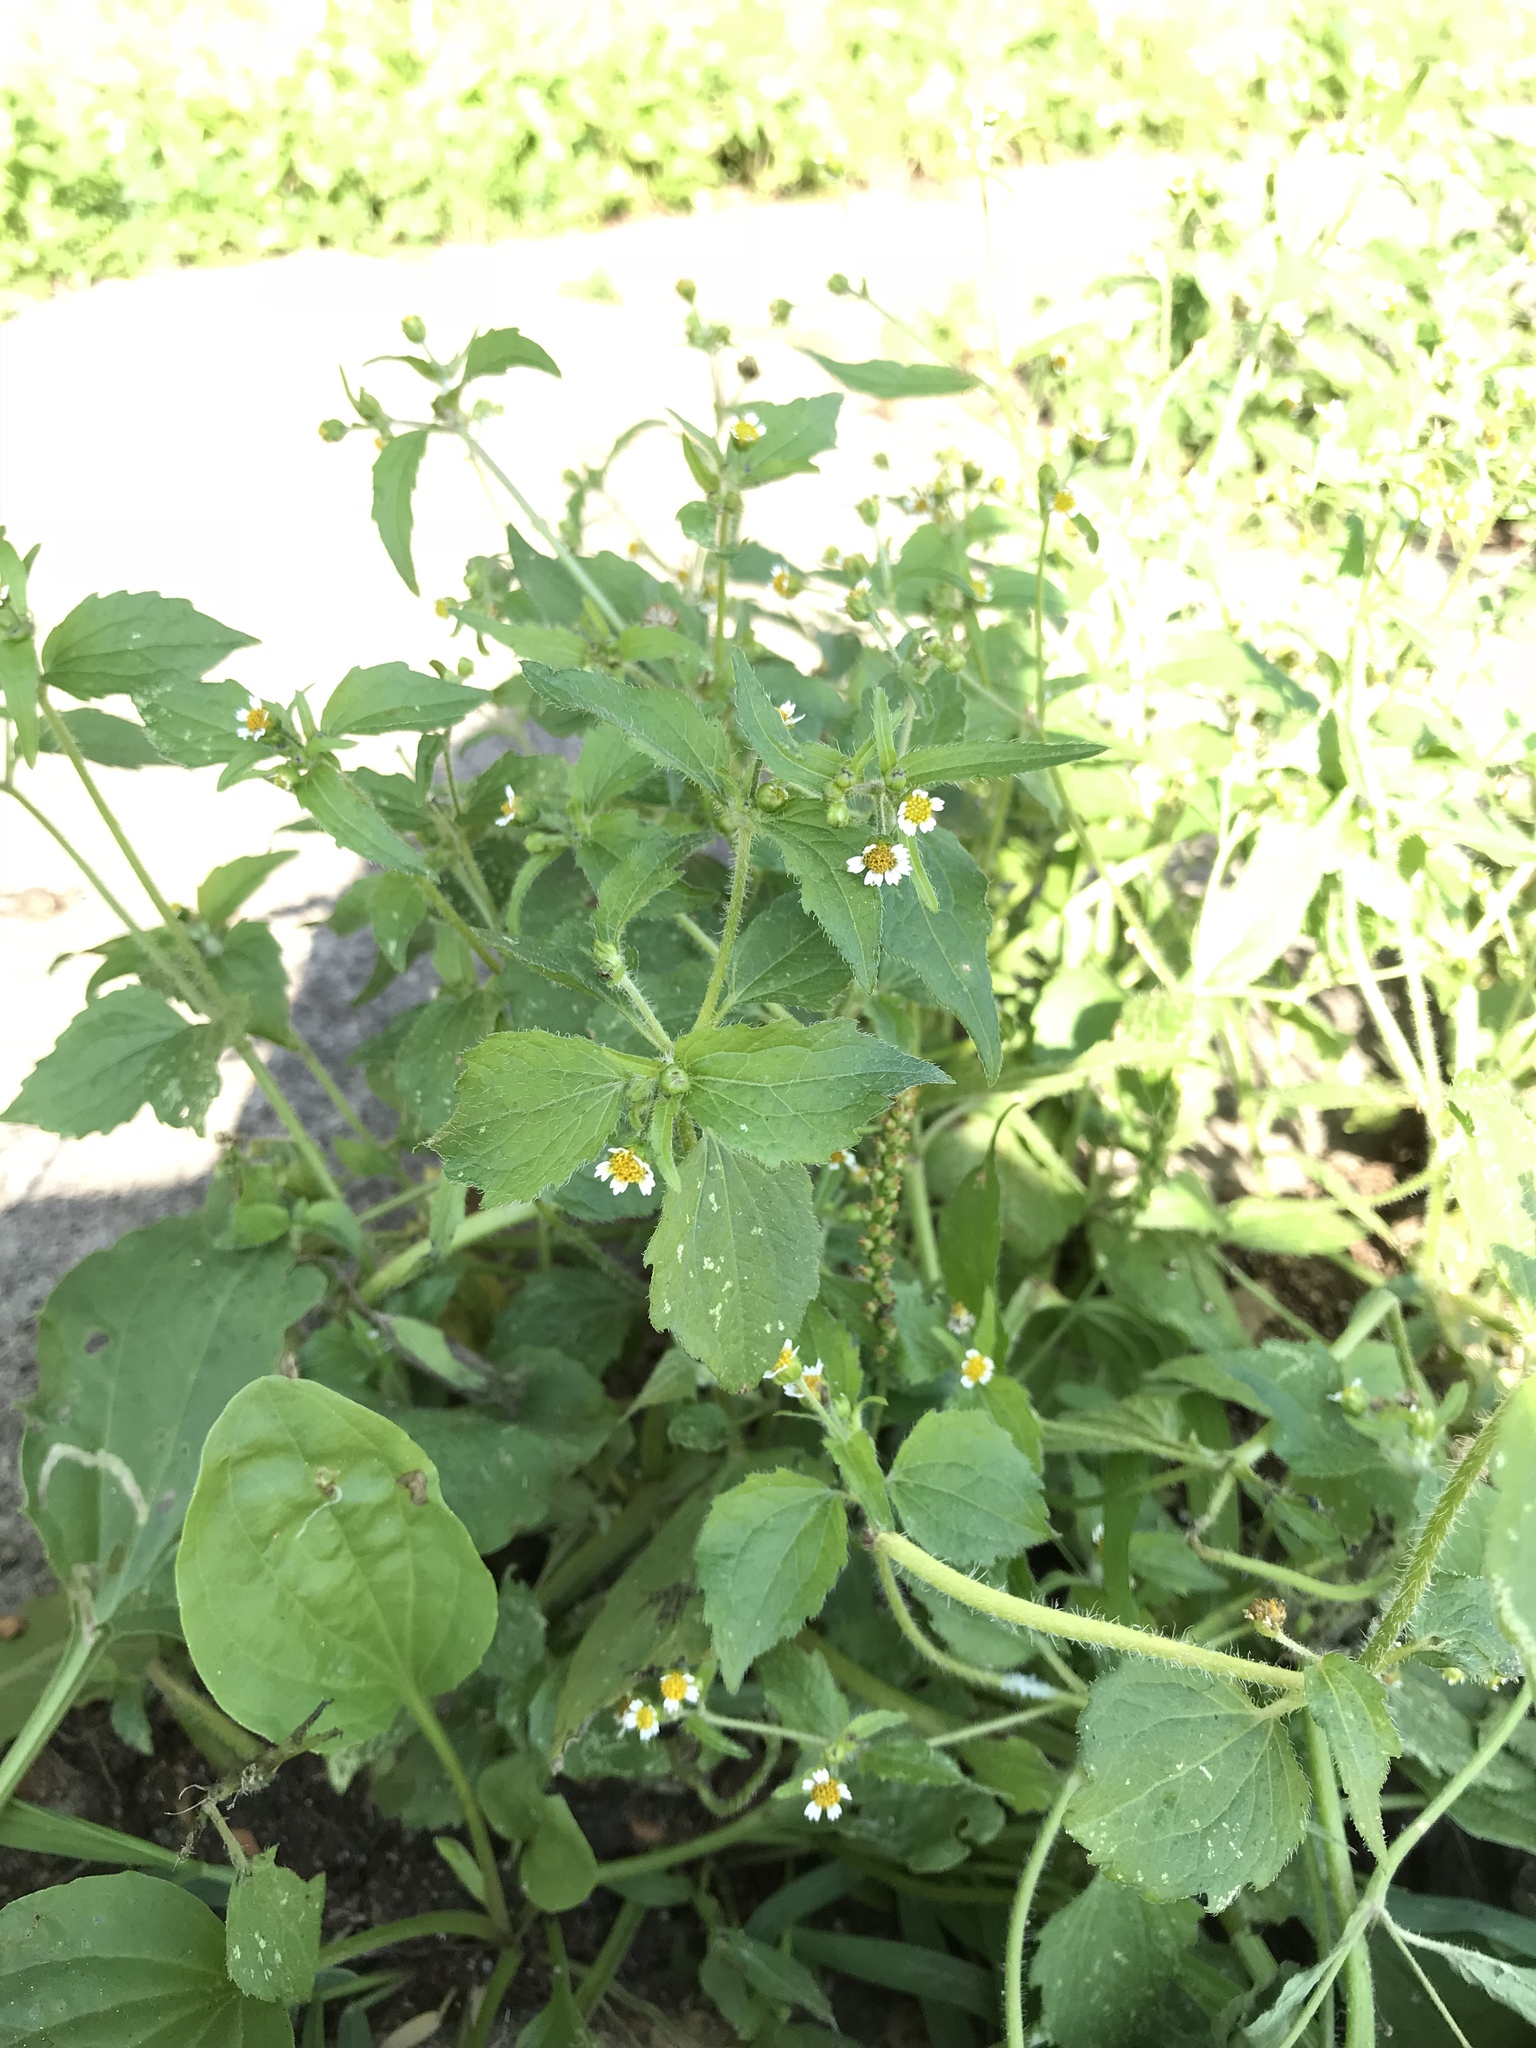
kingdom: Plantae
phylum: Tracheophyta
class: Magnoliopsida
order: Asterales
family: Asteraceae
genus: Galinsoga
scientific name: Galinsoga quadriradiata
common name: Shaggy soldier
